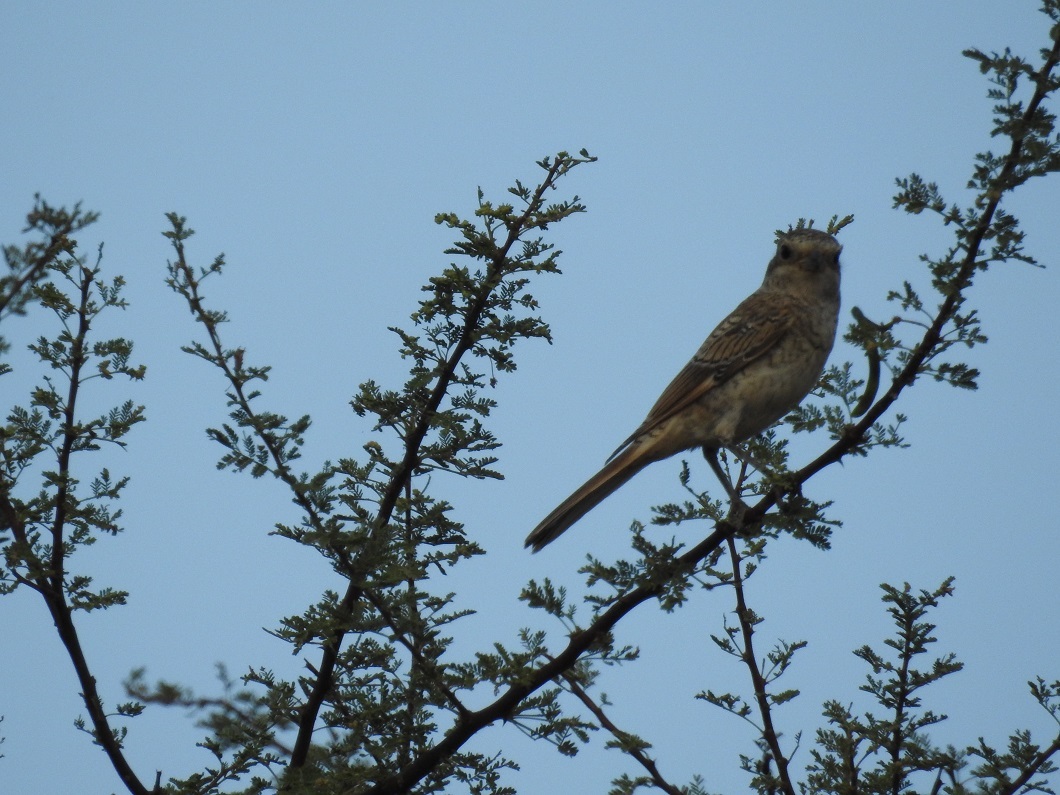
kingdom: Animalia
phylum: Chordata
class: Aves
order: Passeriformes
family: Laniidae
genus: Lanius
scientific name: Lanius senator
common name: Woodchat shrike
